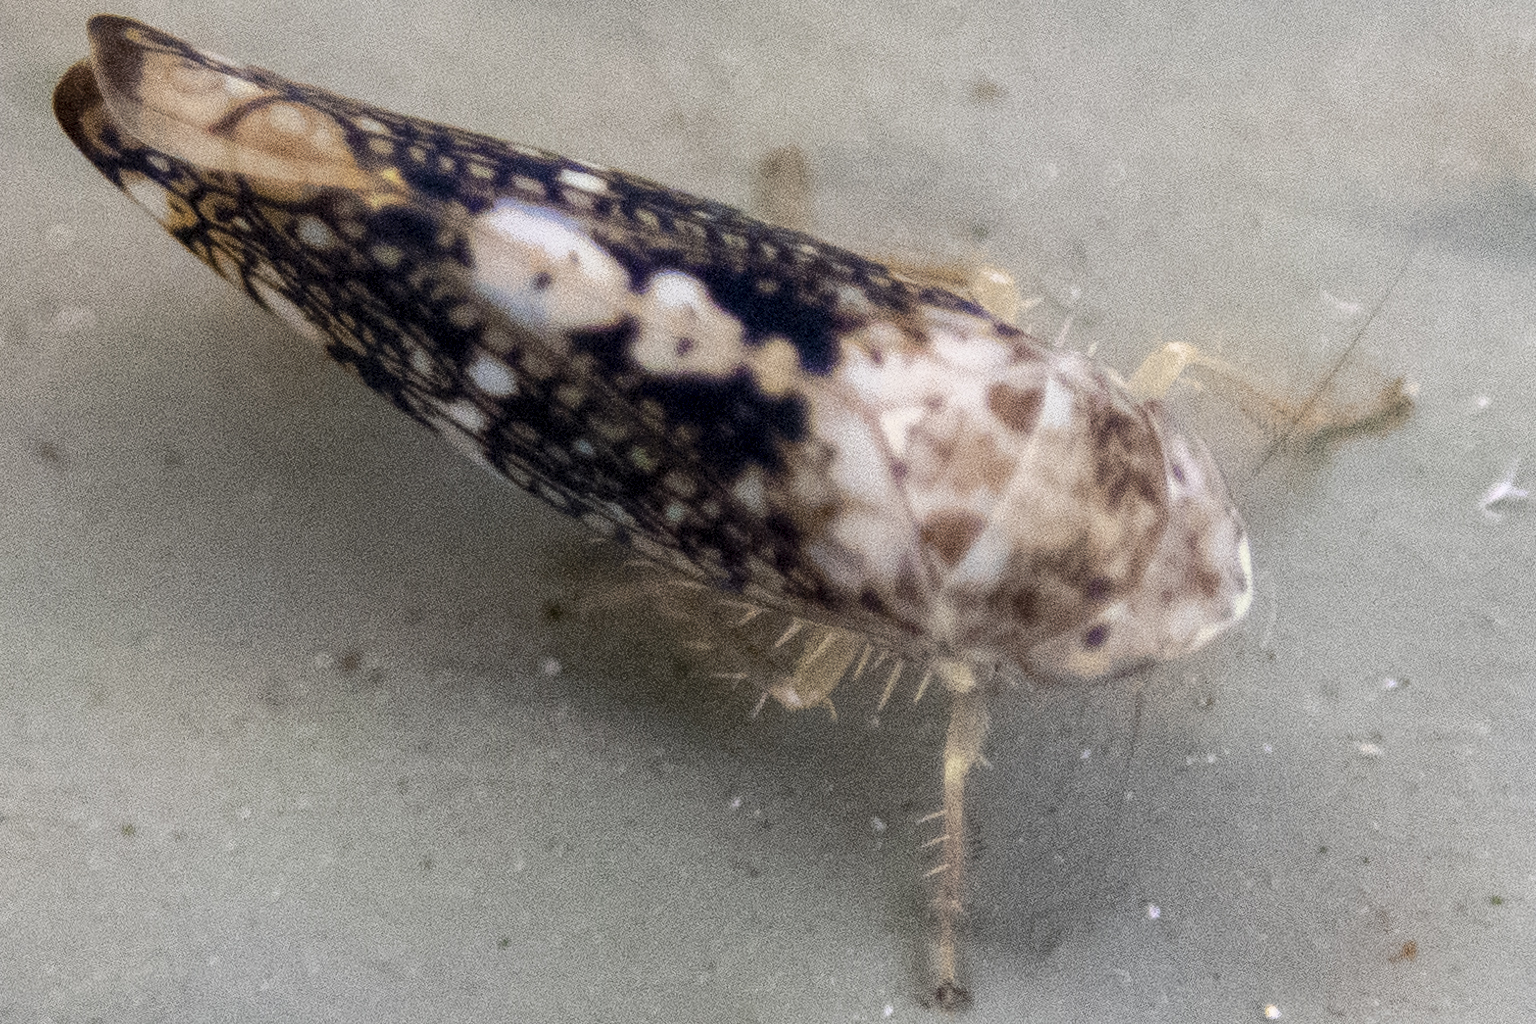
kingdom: Animalia
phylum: Arthropoda
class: Insecta
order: Hemiptera
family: Cicadellidae
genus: Prescottia
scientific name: Prescottia lobata
